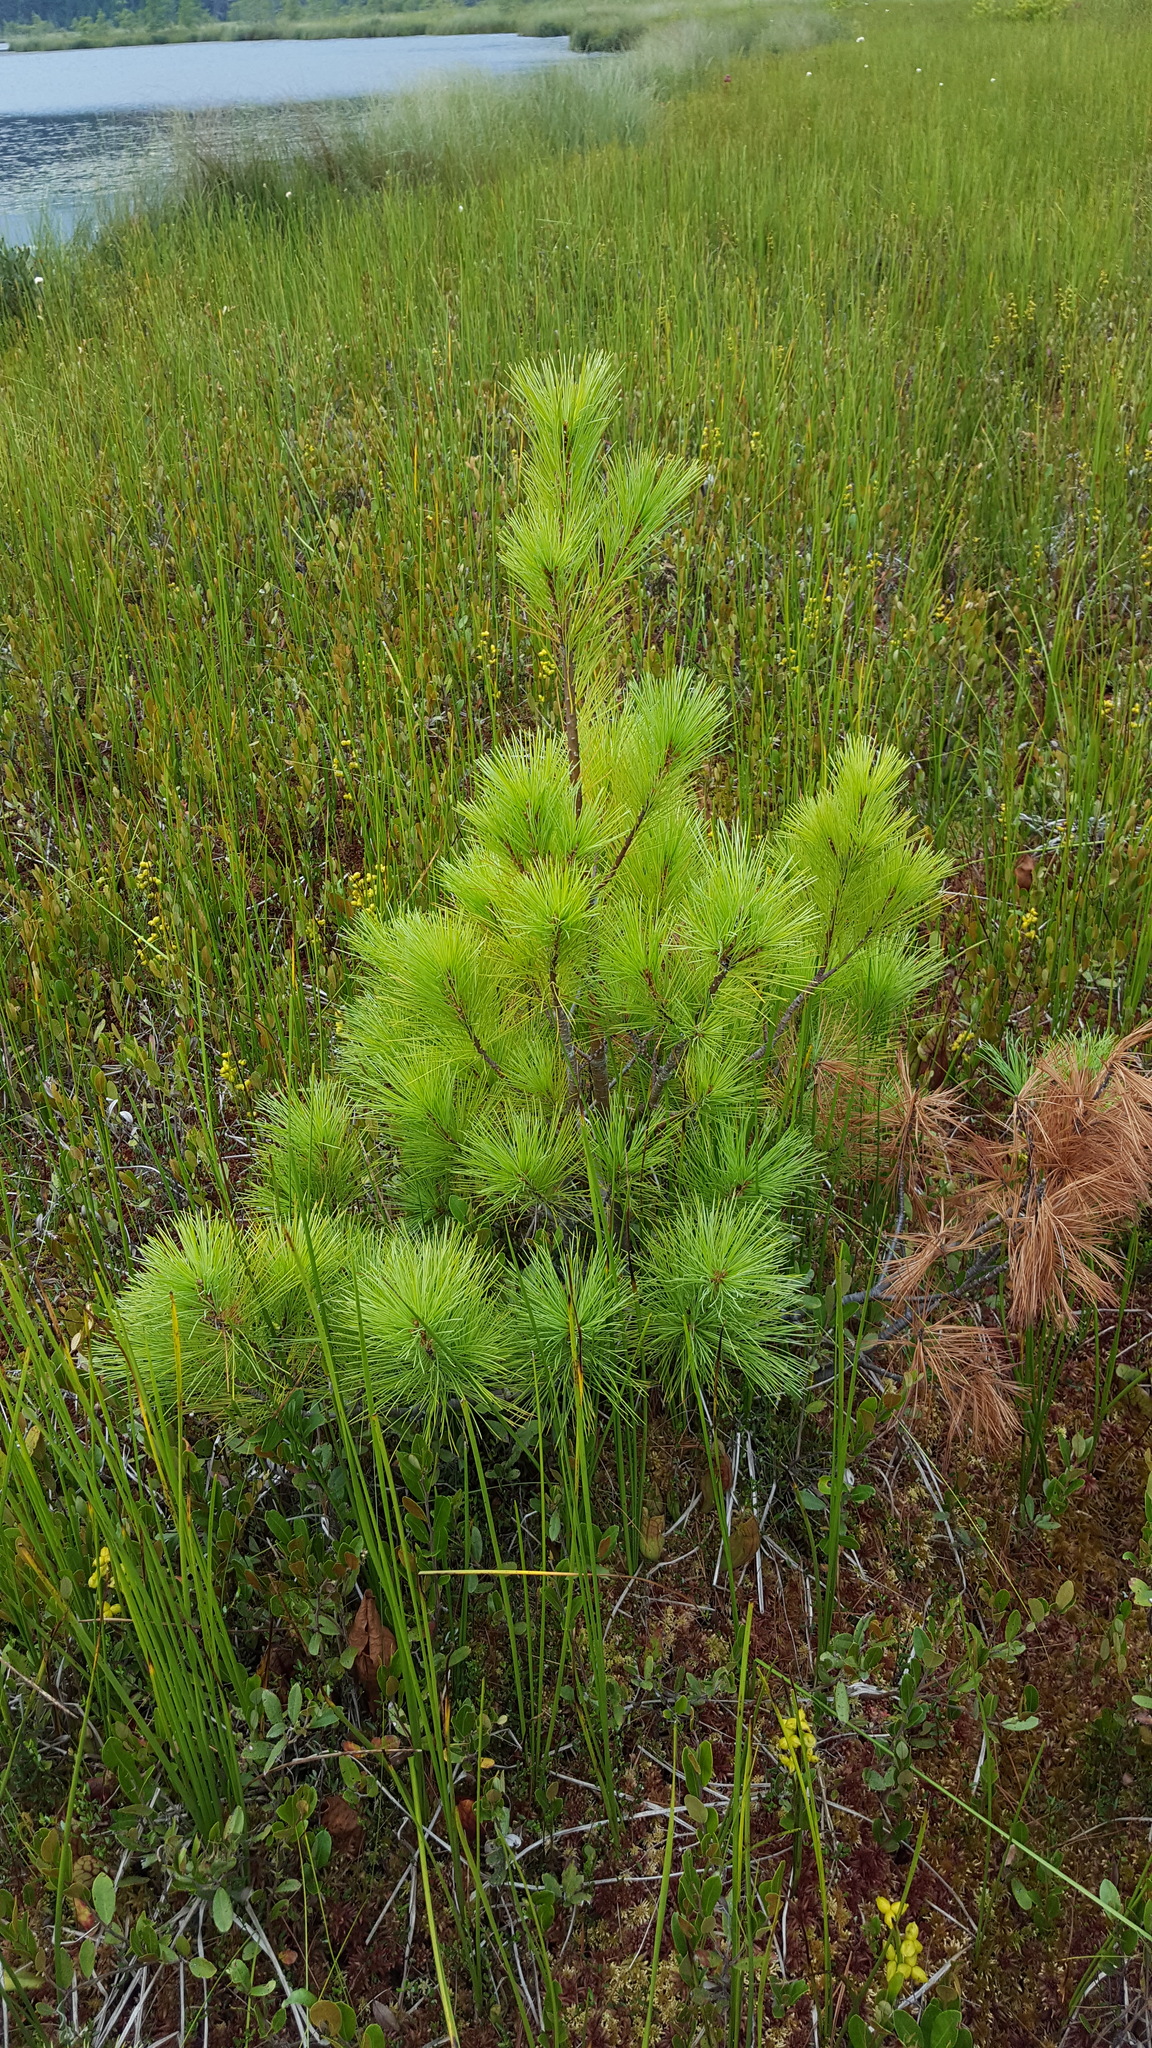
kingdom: Plantae
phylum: Tracheophyta
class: Pinopsida
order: Pinales
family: Pinaceae
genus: Pinus
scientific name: Pinus strobus
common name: Weymouth pine
